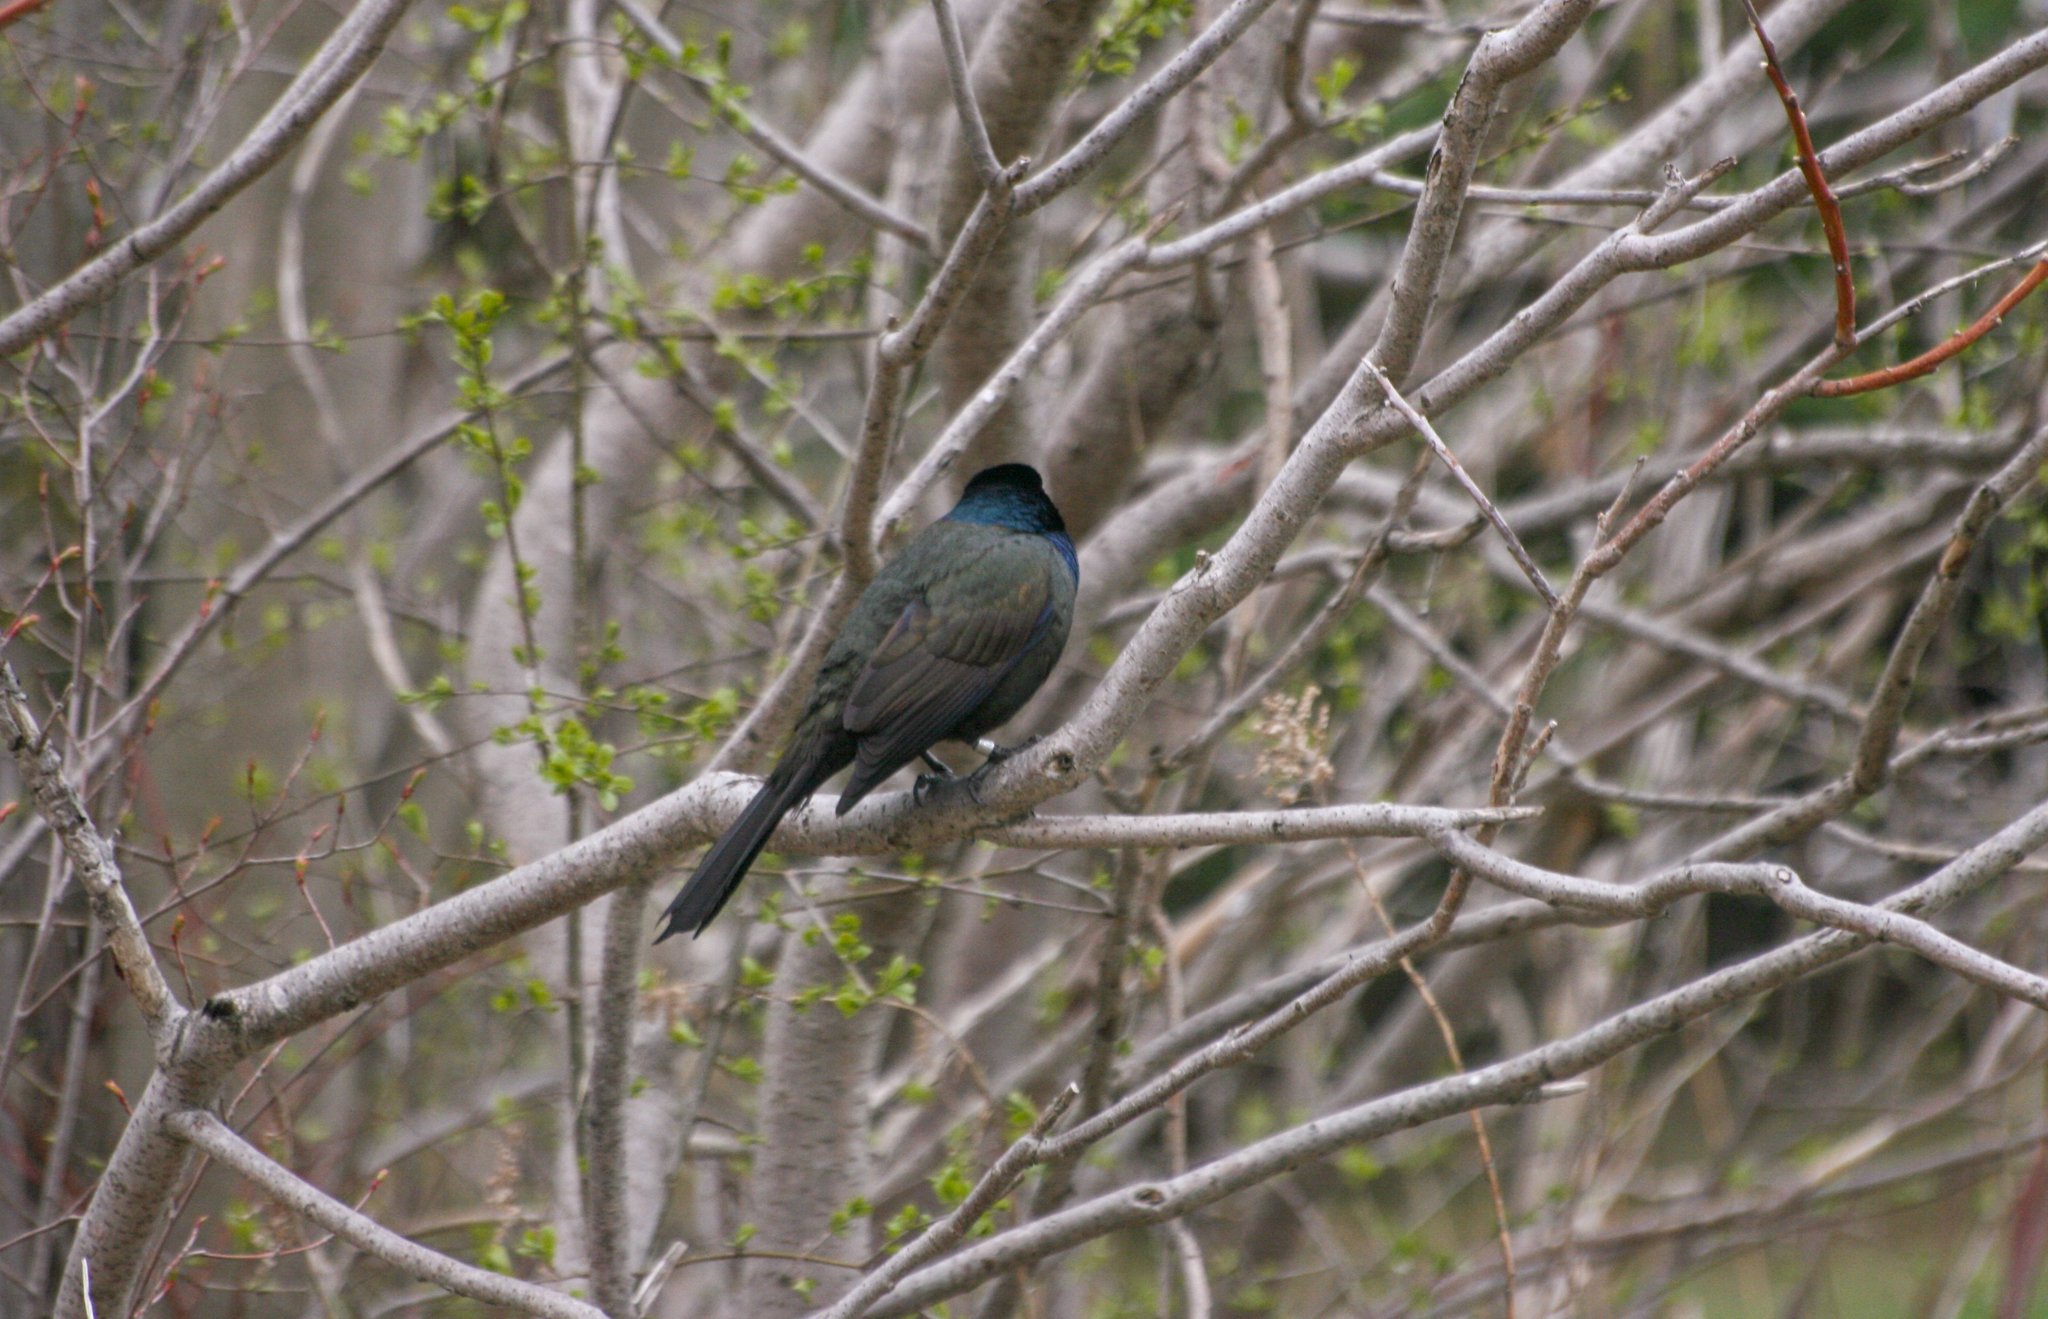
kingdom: Animalia
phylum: Chordata
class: Aves
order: Passeriformes
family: Icteridae
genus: Quiscalus
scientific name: Quiscalus quiscula
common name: Common grackle
